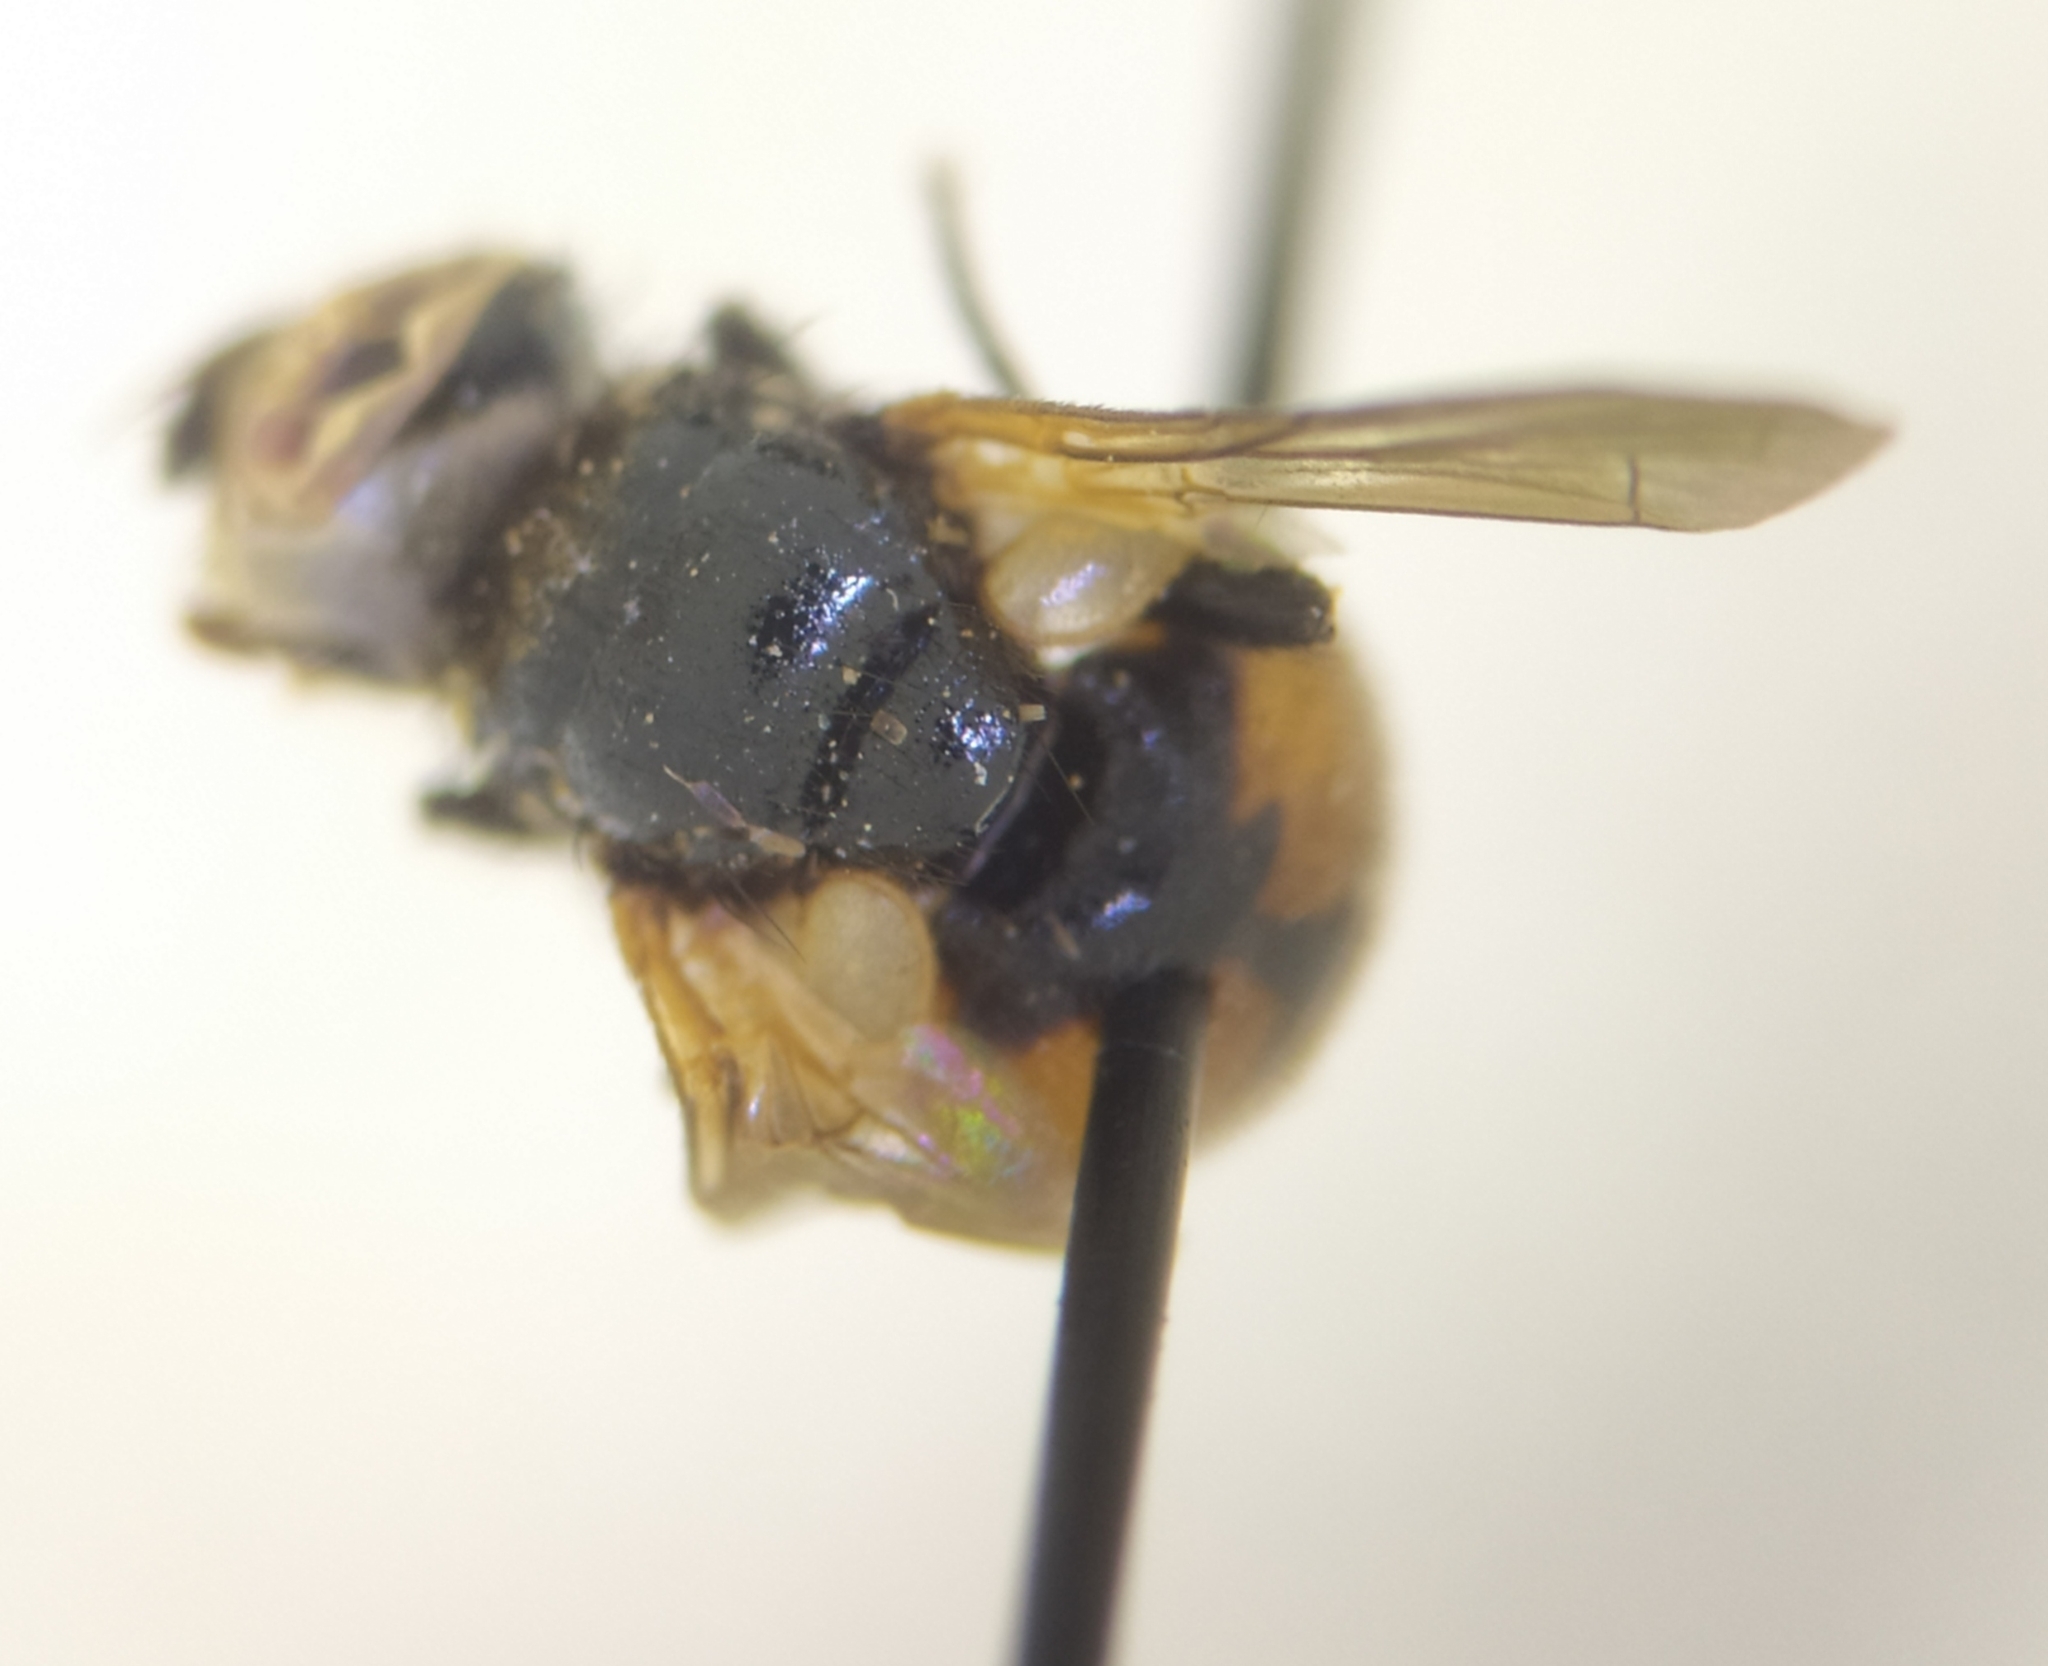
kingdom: Animalia
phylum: Arthropoda
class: Insecta
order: Diptera
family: Tachinidae
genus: Gymnosoma
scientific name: Gymnosoma nitens
